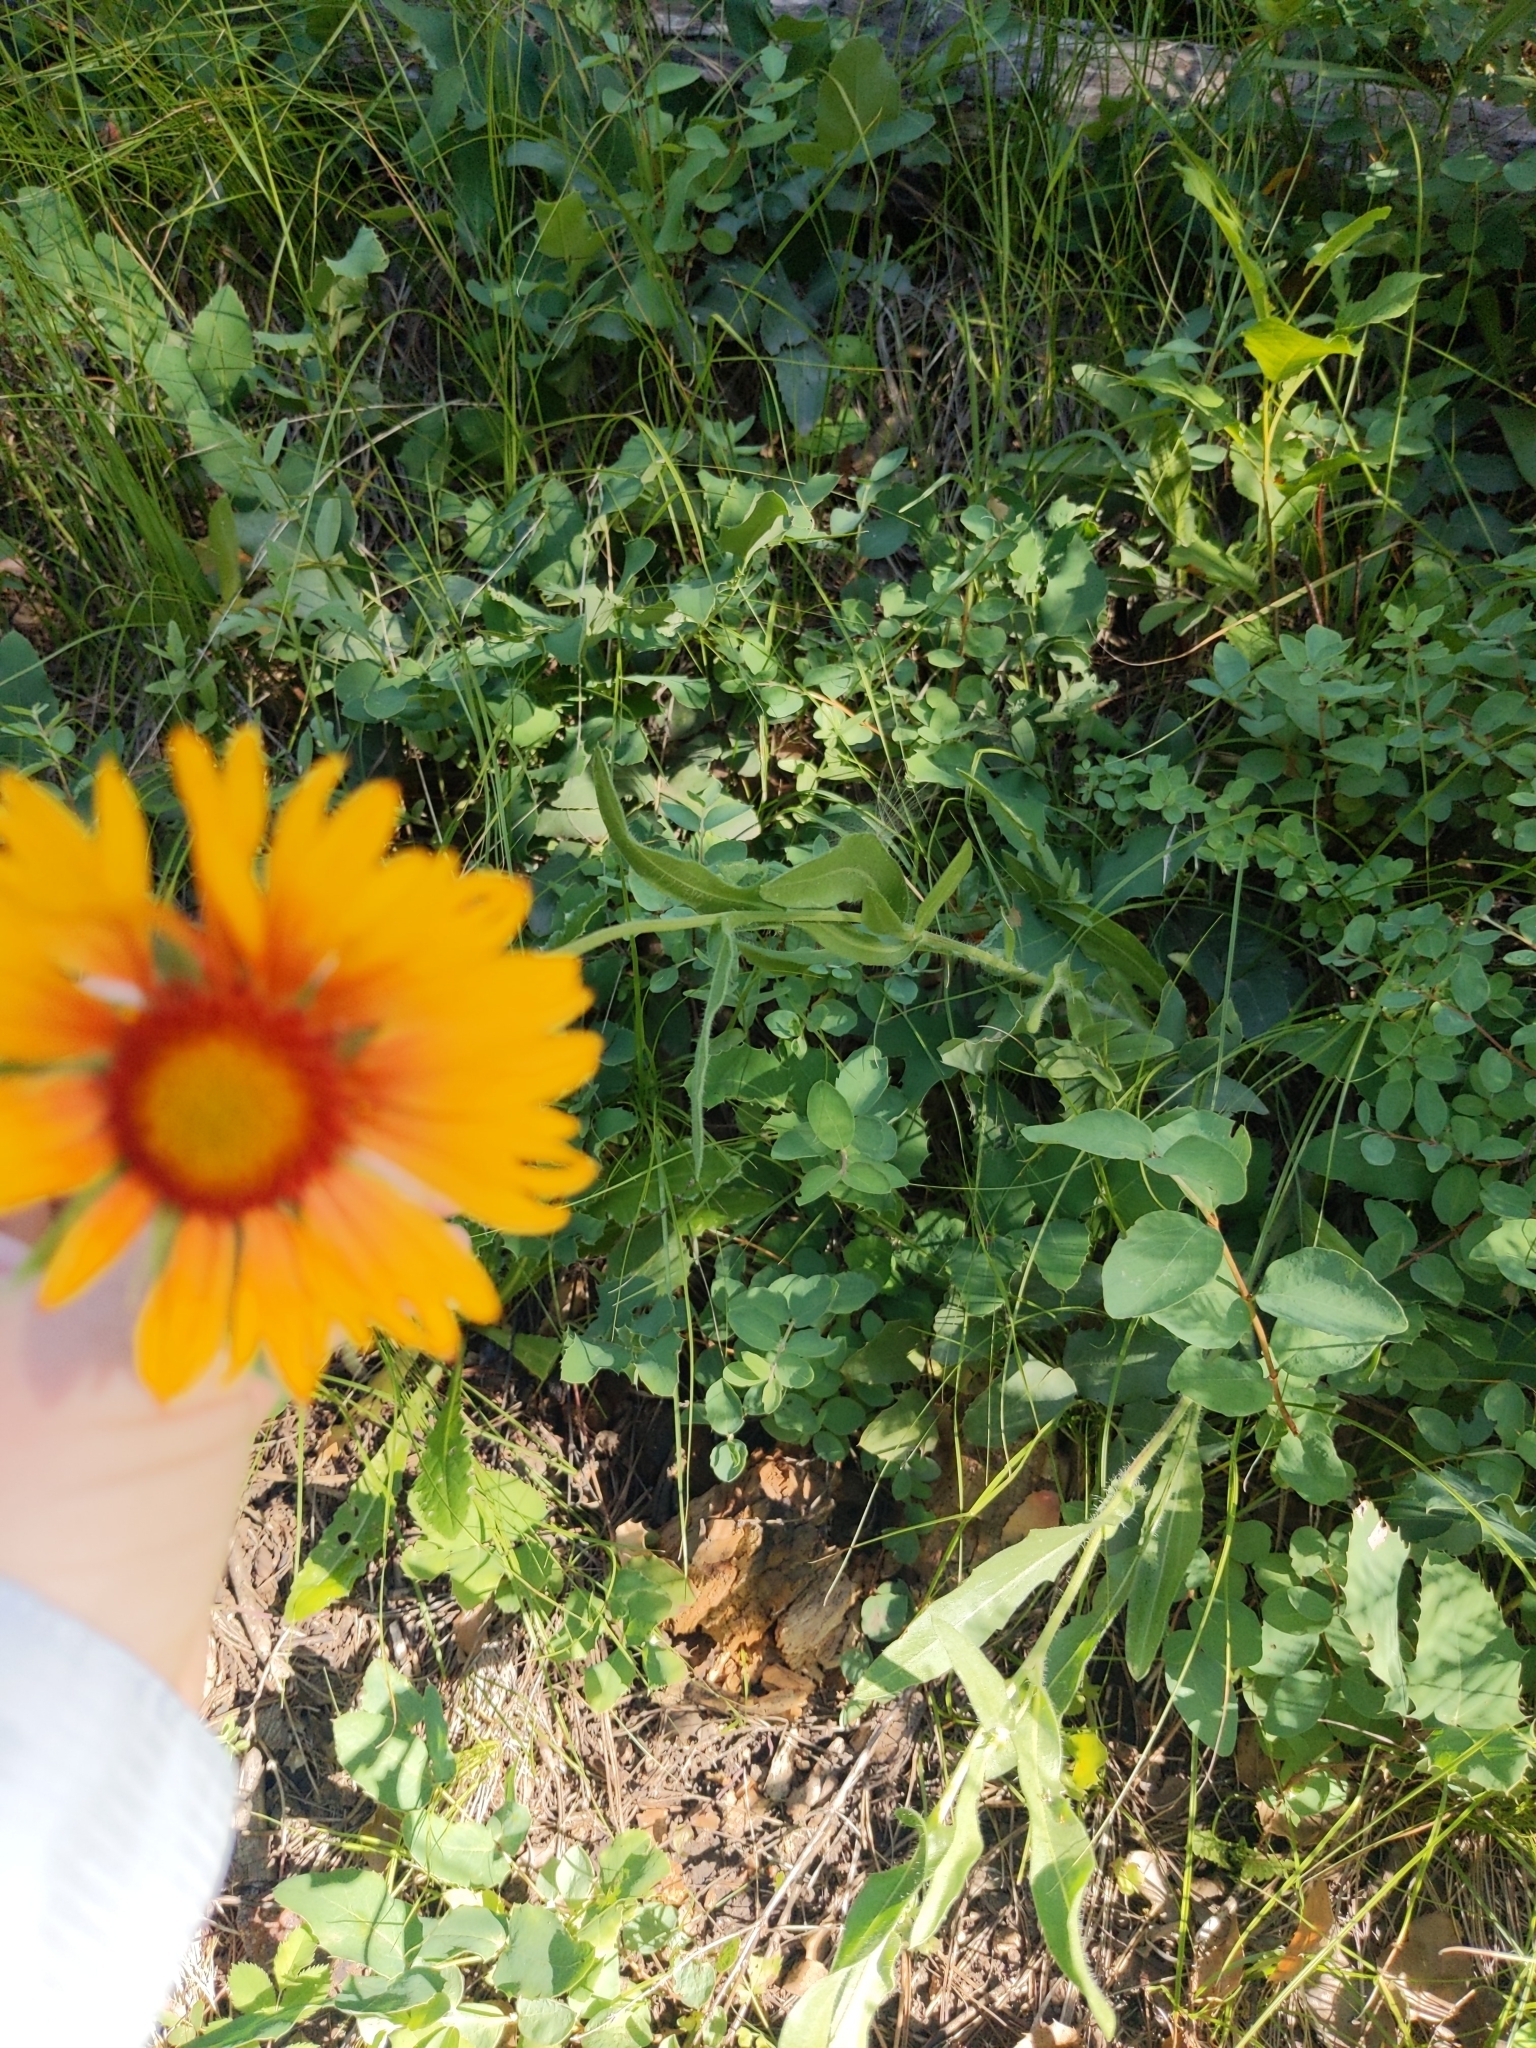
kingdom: Plantae
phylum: Tracheophyta
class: Magnoliopsida
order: Asterales
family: Asteraceae
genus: Gaillardia
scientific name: Gaillardia aristata
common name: Blanket-flower
